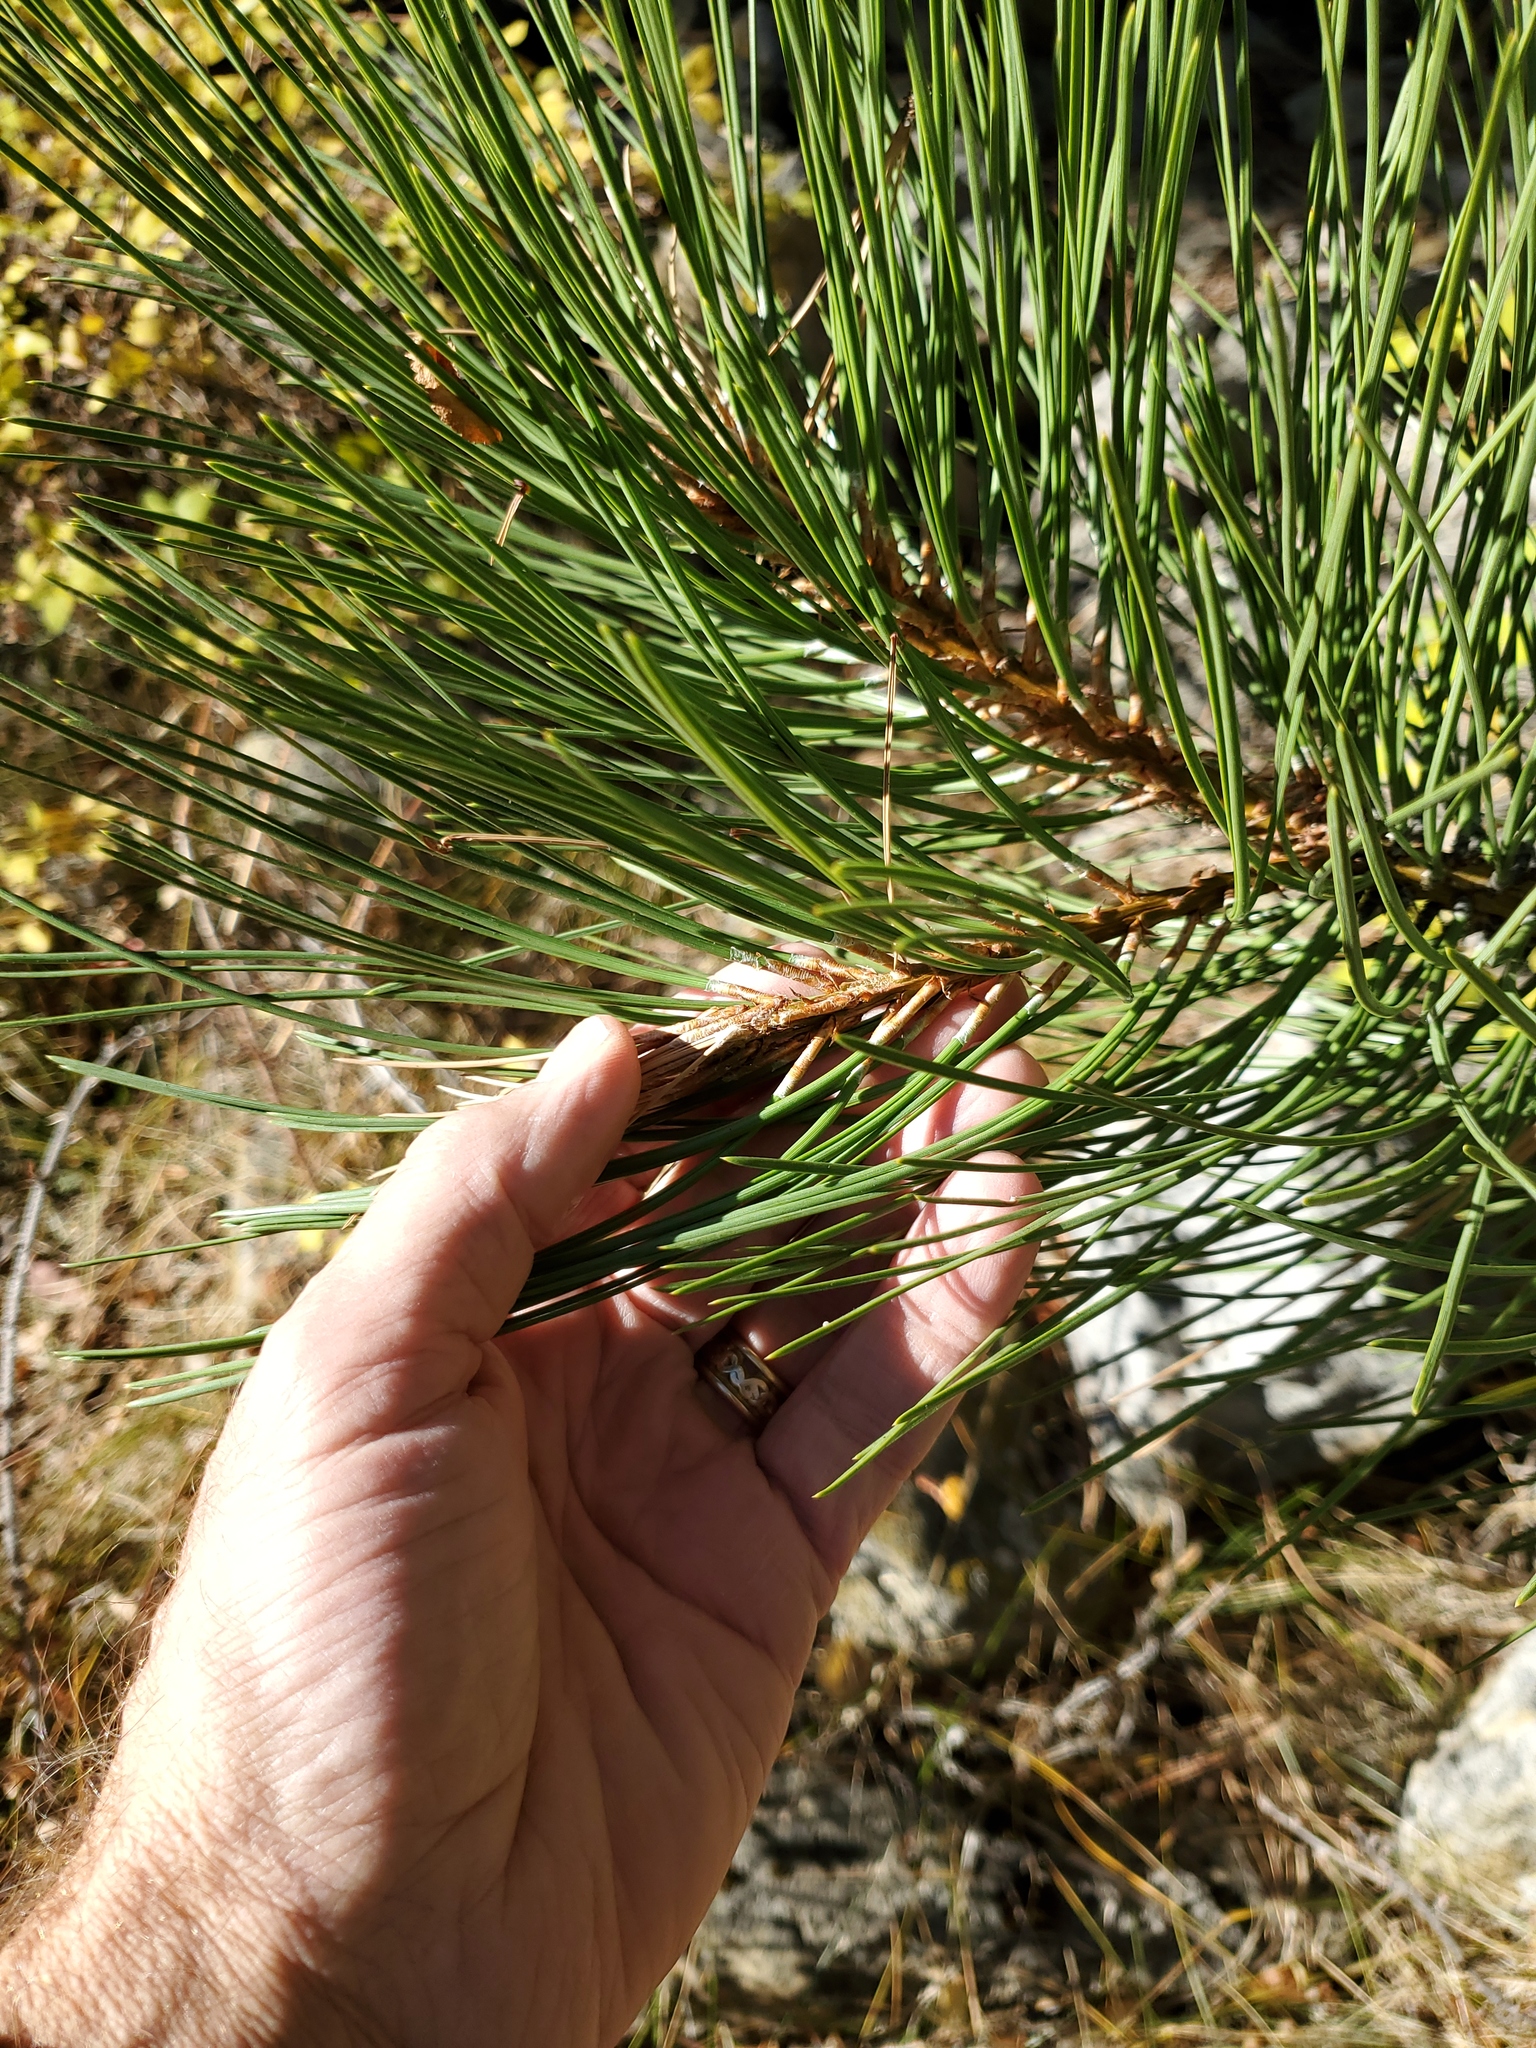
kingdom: Plantae
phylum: Tracheophyta
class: Pinopsida
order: Pinales
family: Pinaceae
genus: Pinus
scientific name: Pinus ponderosa
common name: Western yellow-pine
